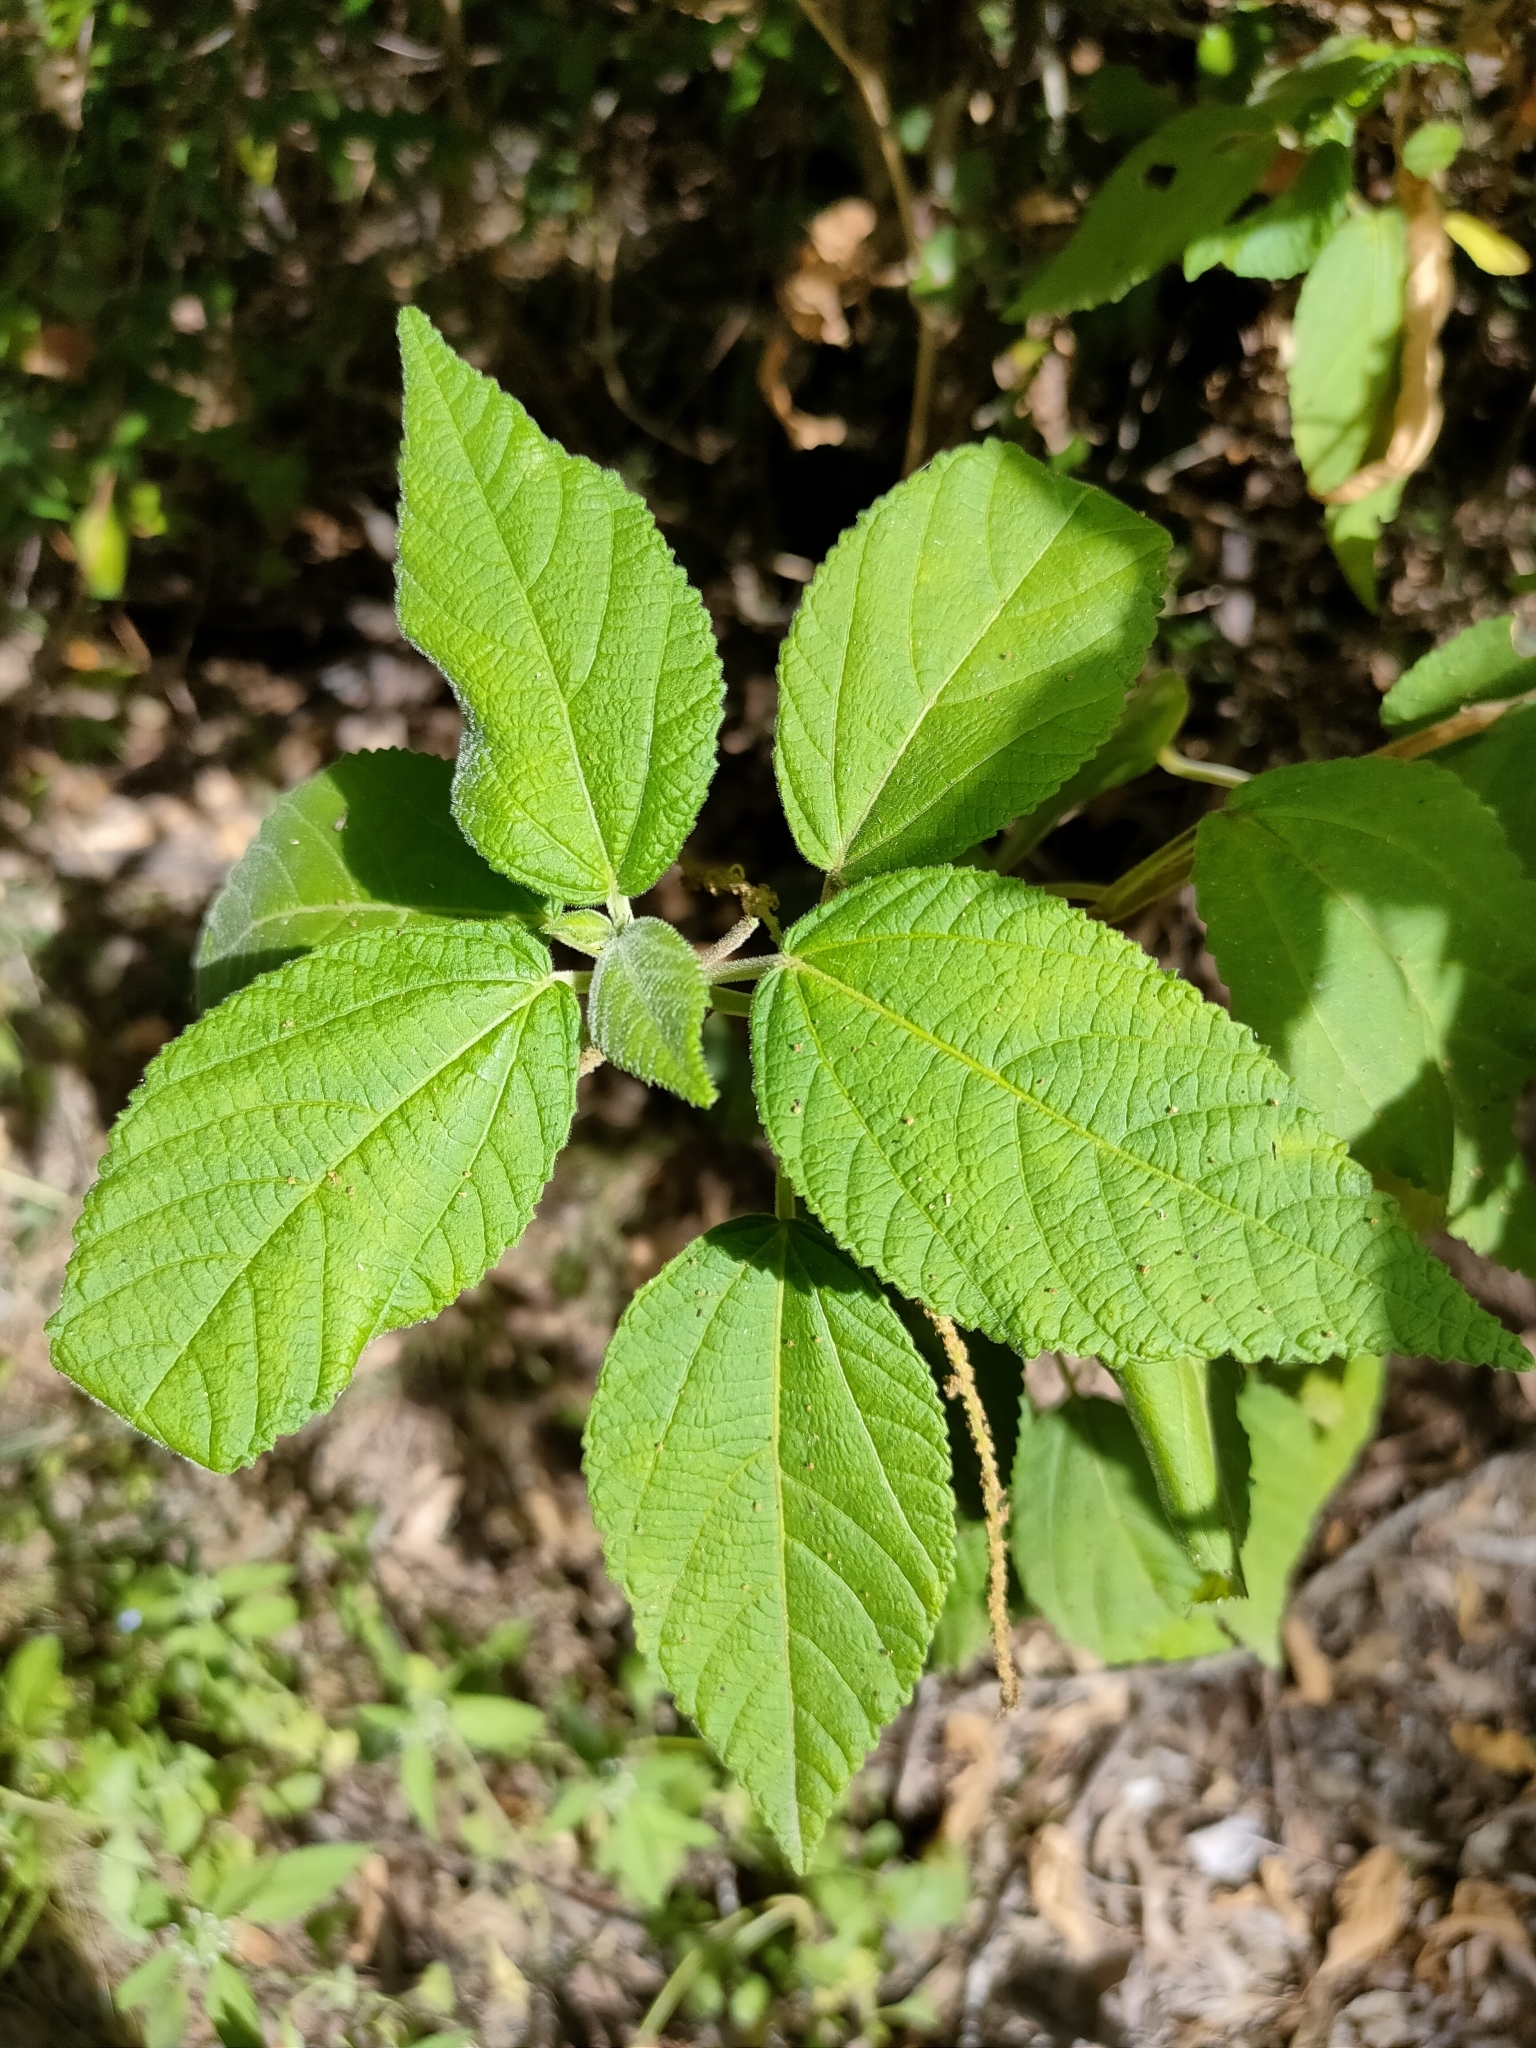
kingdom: Plantae
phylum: Tracheophyta
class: Magnoliopsida
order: Malpighiales
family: Euphorbiaceae
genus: Acalypha
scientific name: Acalypha nemorum
